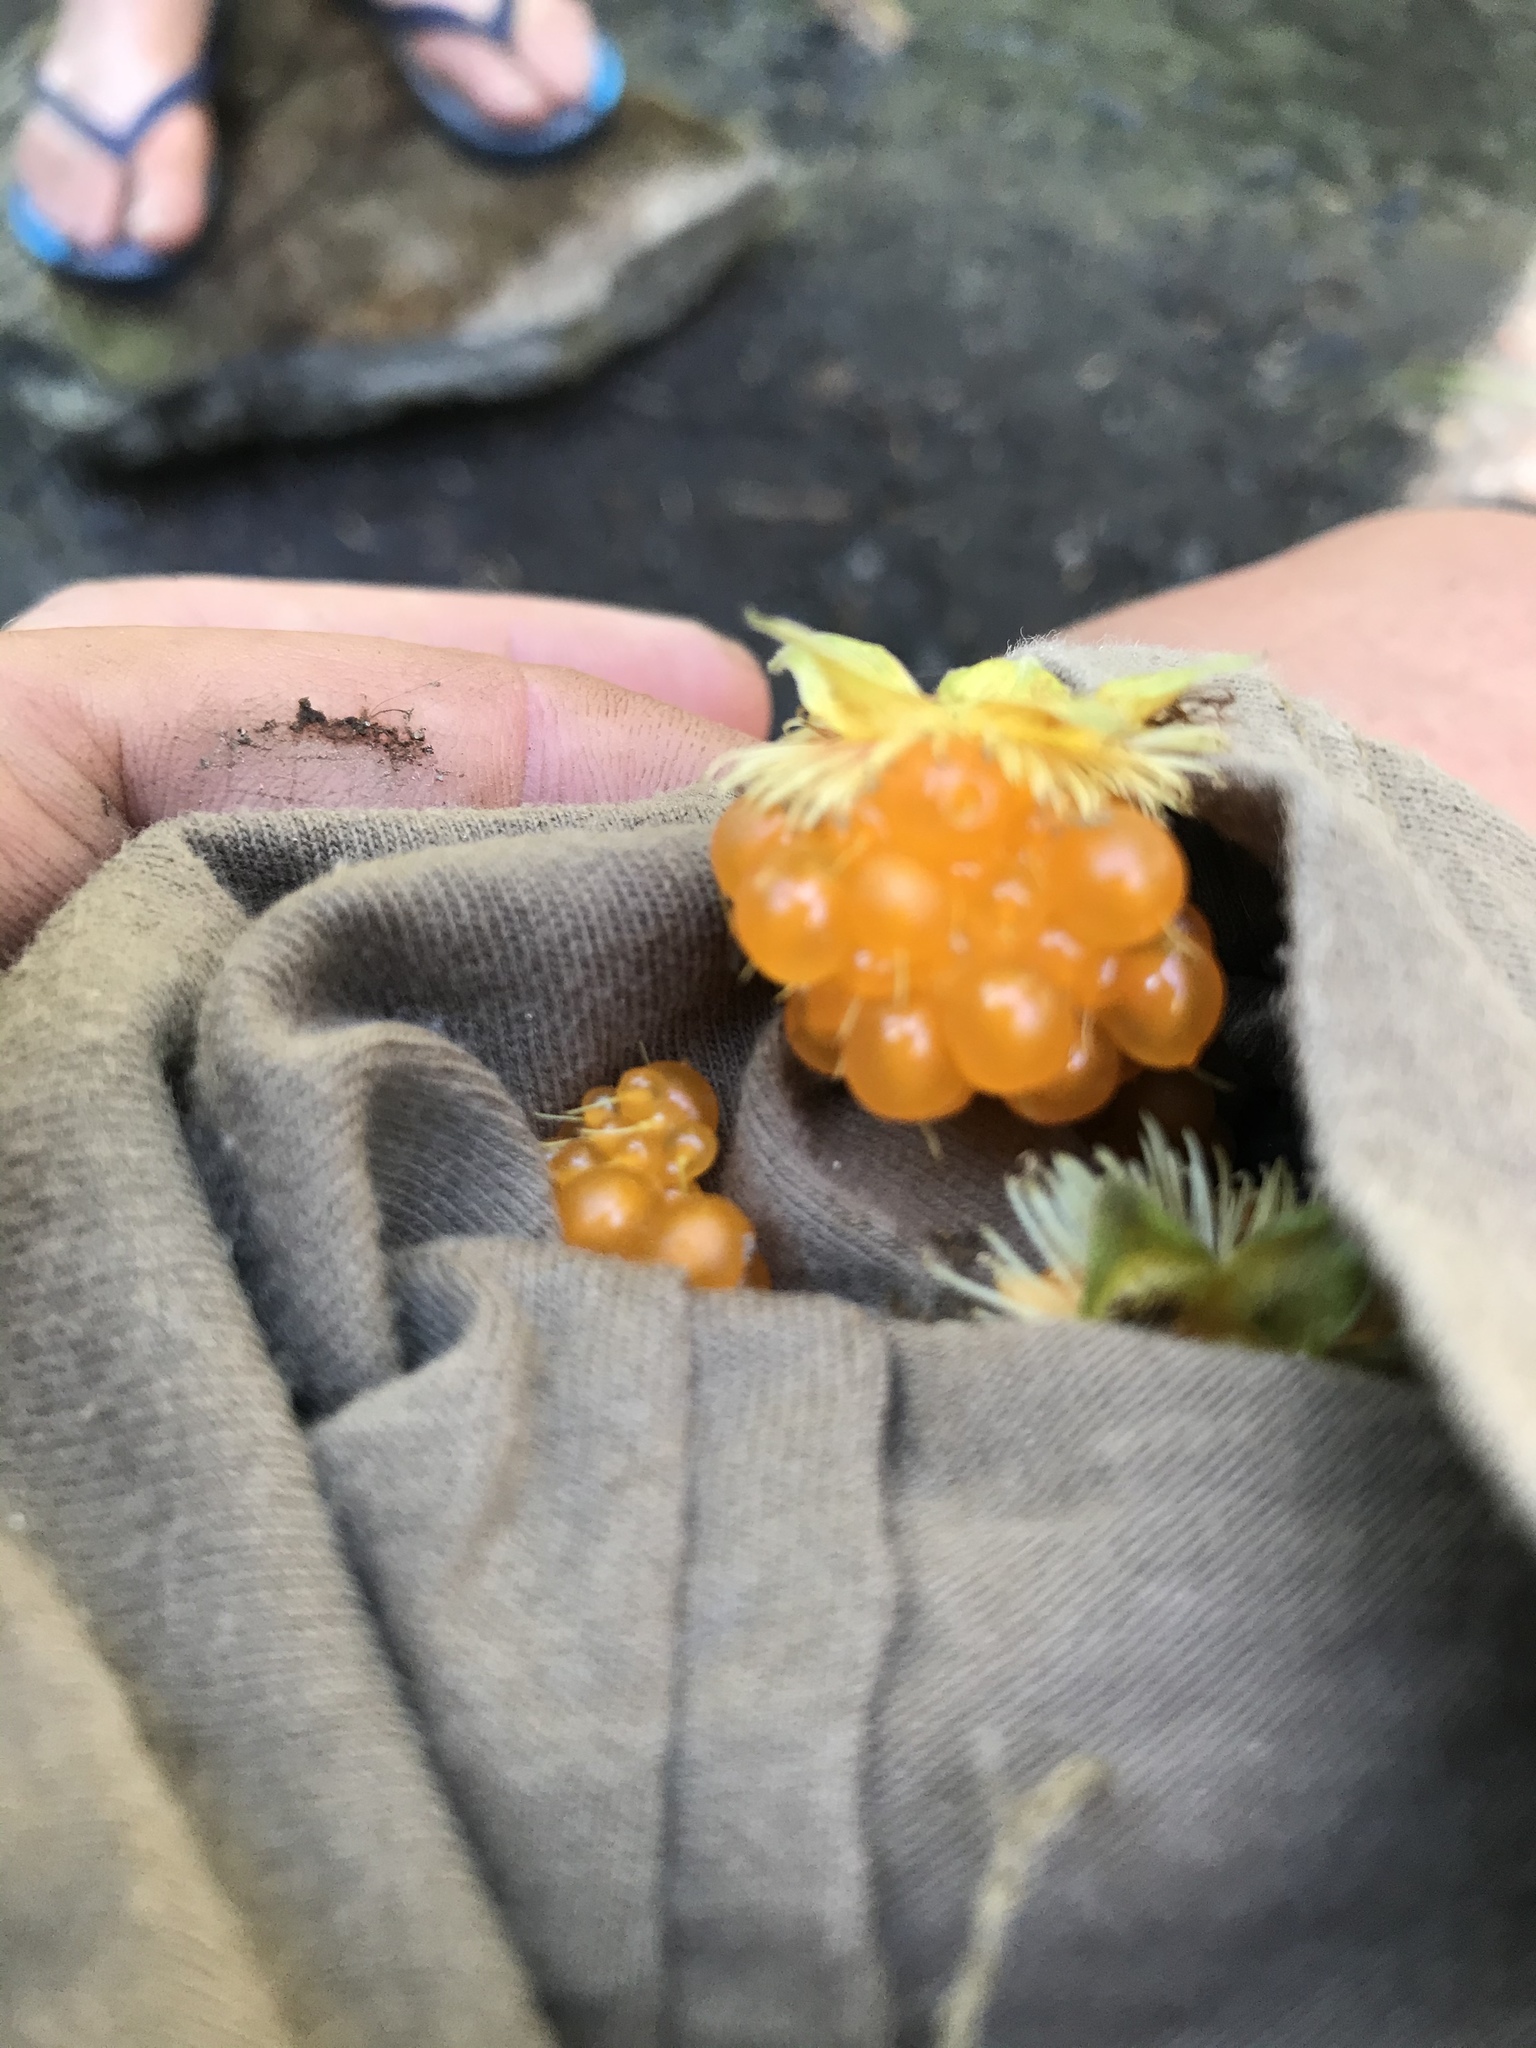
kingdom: Plantae
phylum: Tracheophyta
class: Magnoliopsida
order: Rosales
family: Rosaceae
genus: Rubus
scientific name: Rubus spectabilis
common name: Salmonberry
